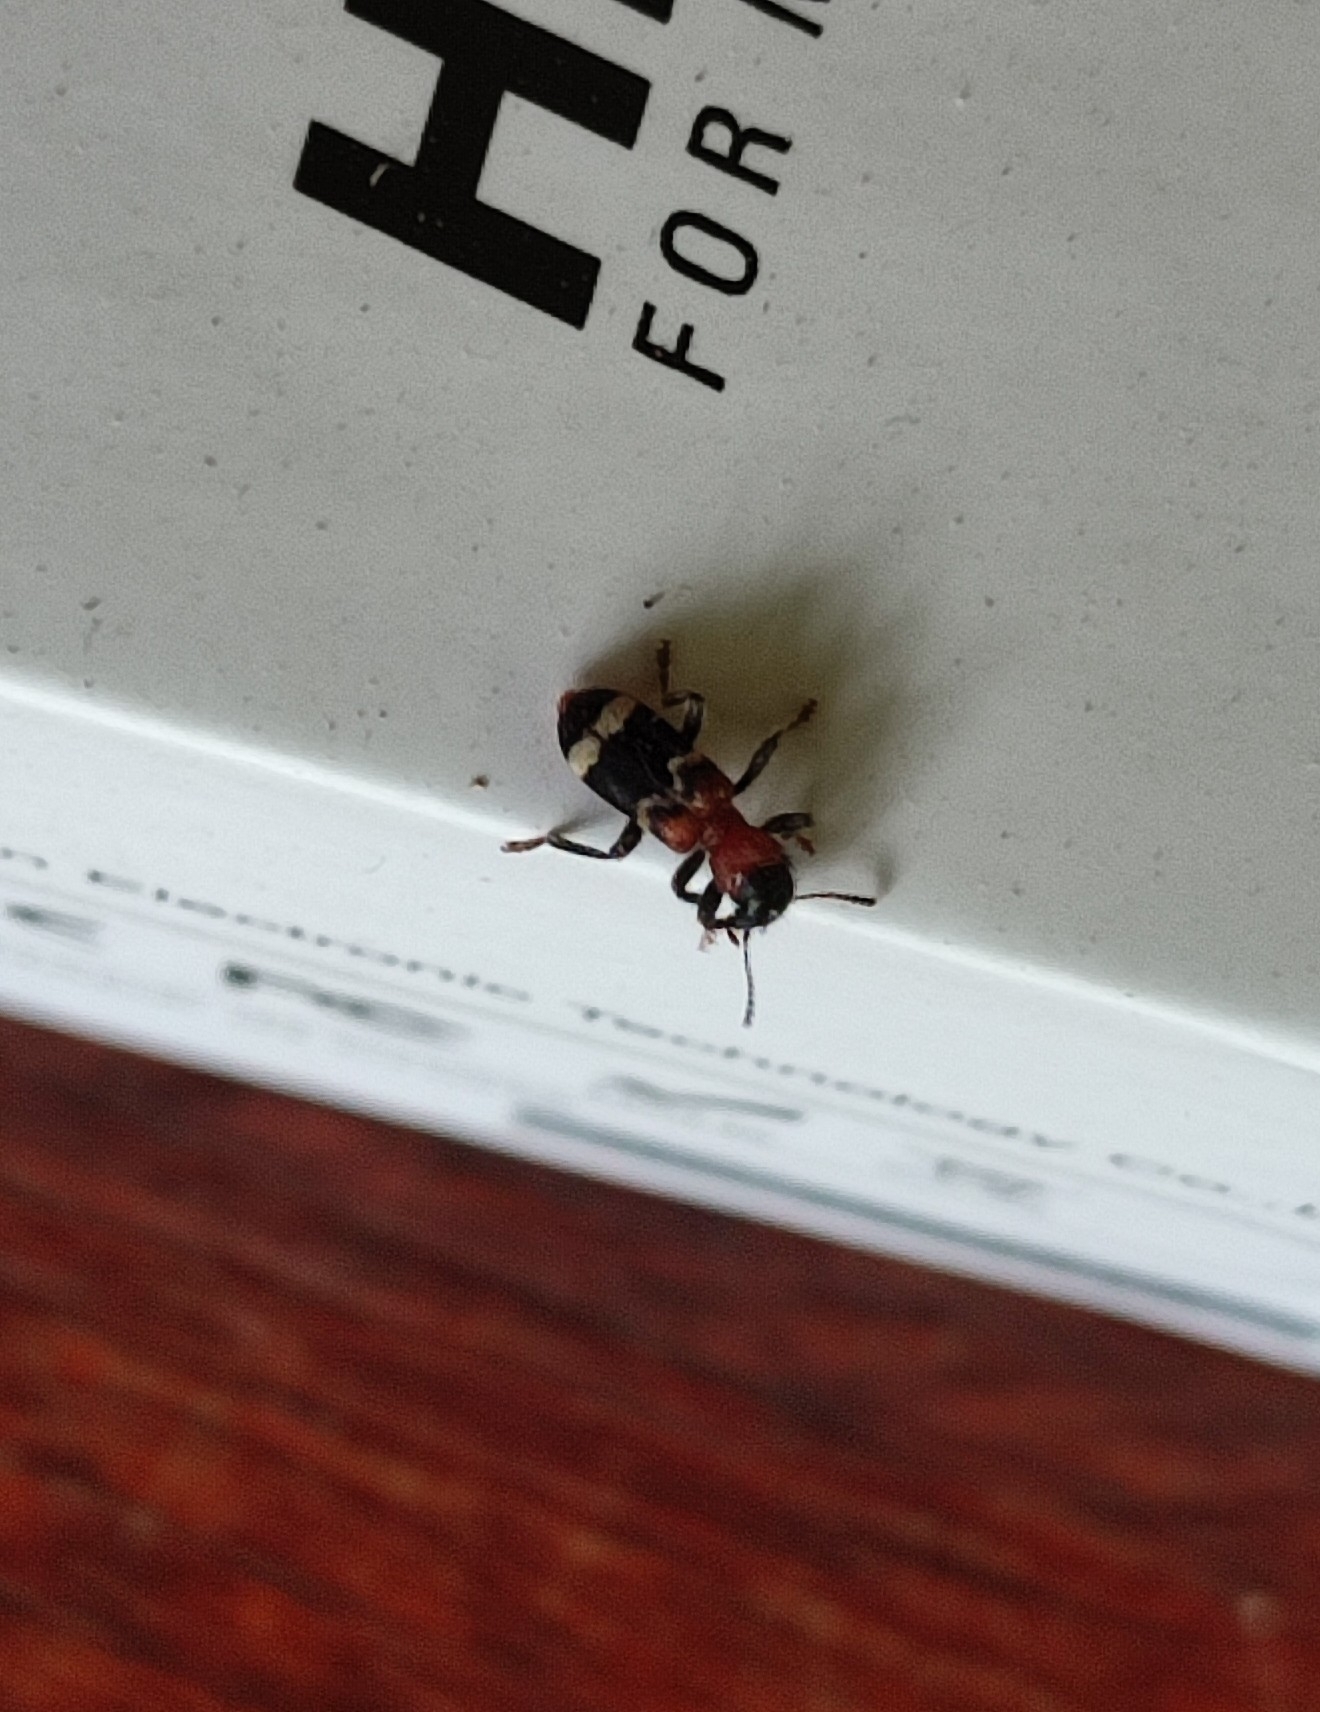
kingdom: Animalia
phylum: Arthropoda
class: Insecta
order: Coleoptera
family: Cleridae
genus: Thanasimus
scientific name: Thanasimus formicarius
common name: Ant beetle
